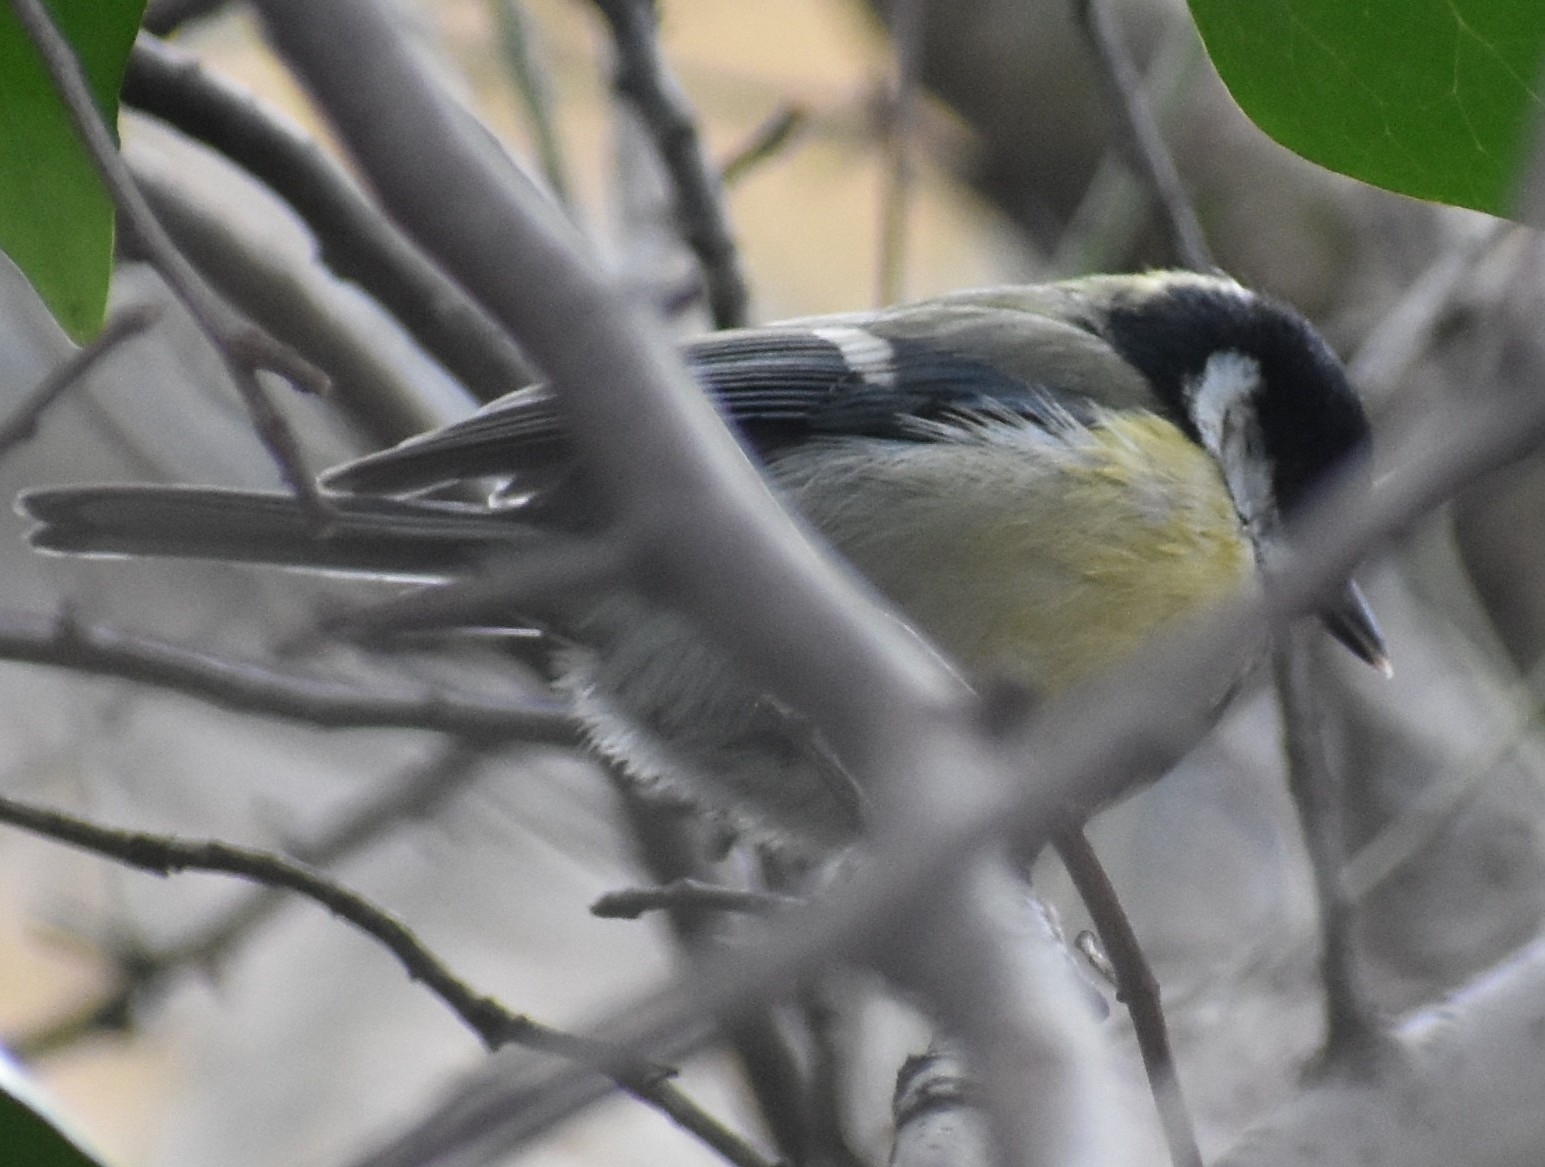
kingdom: Animalia
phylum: Chordata
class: Aves
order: Passeriformes
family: Paridae
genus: Parus
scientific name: Parus major
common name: Great tit
